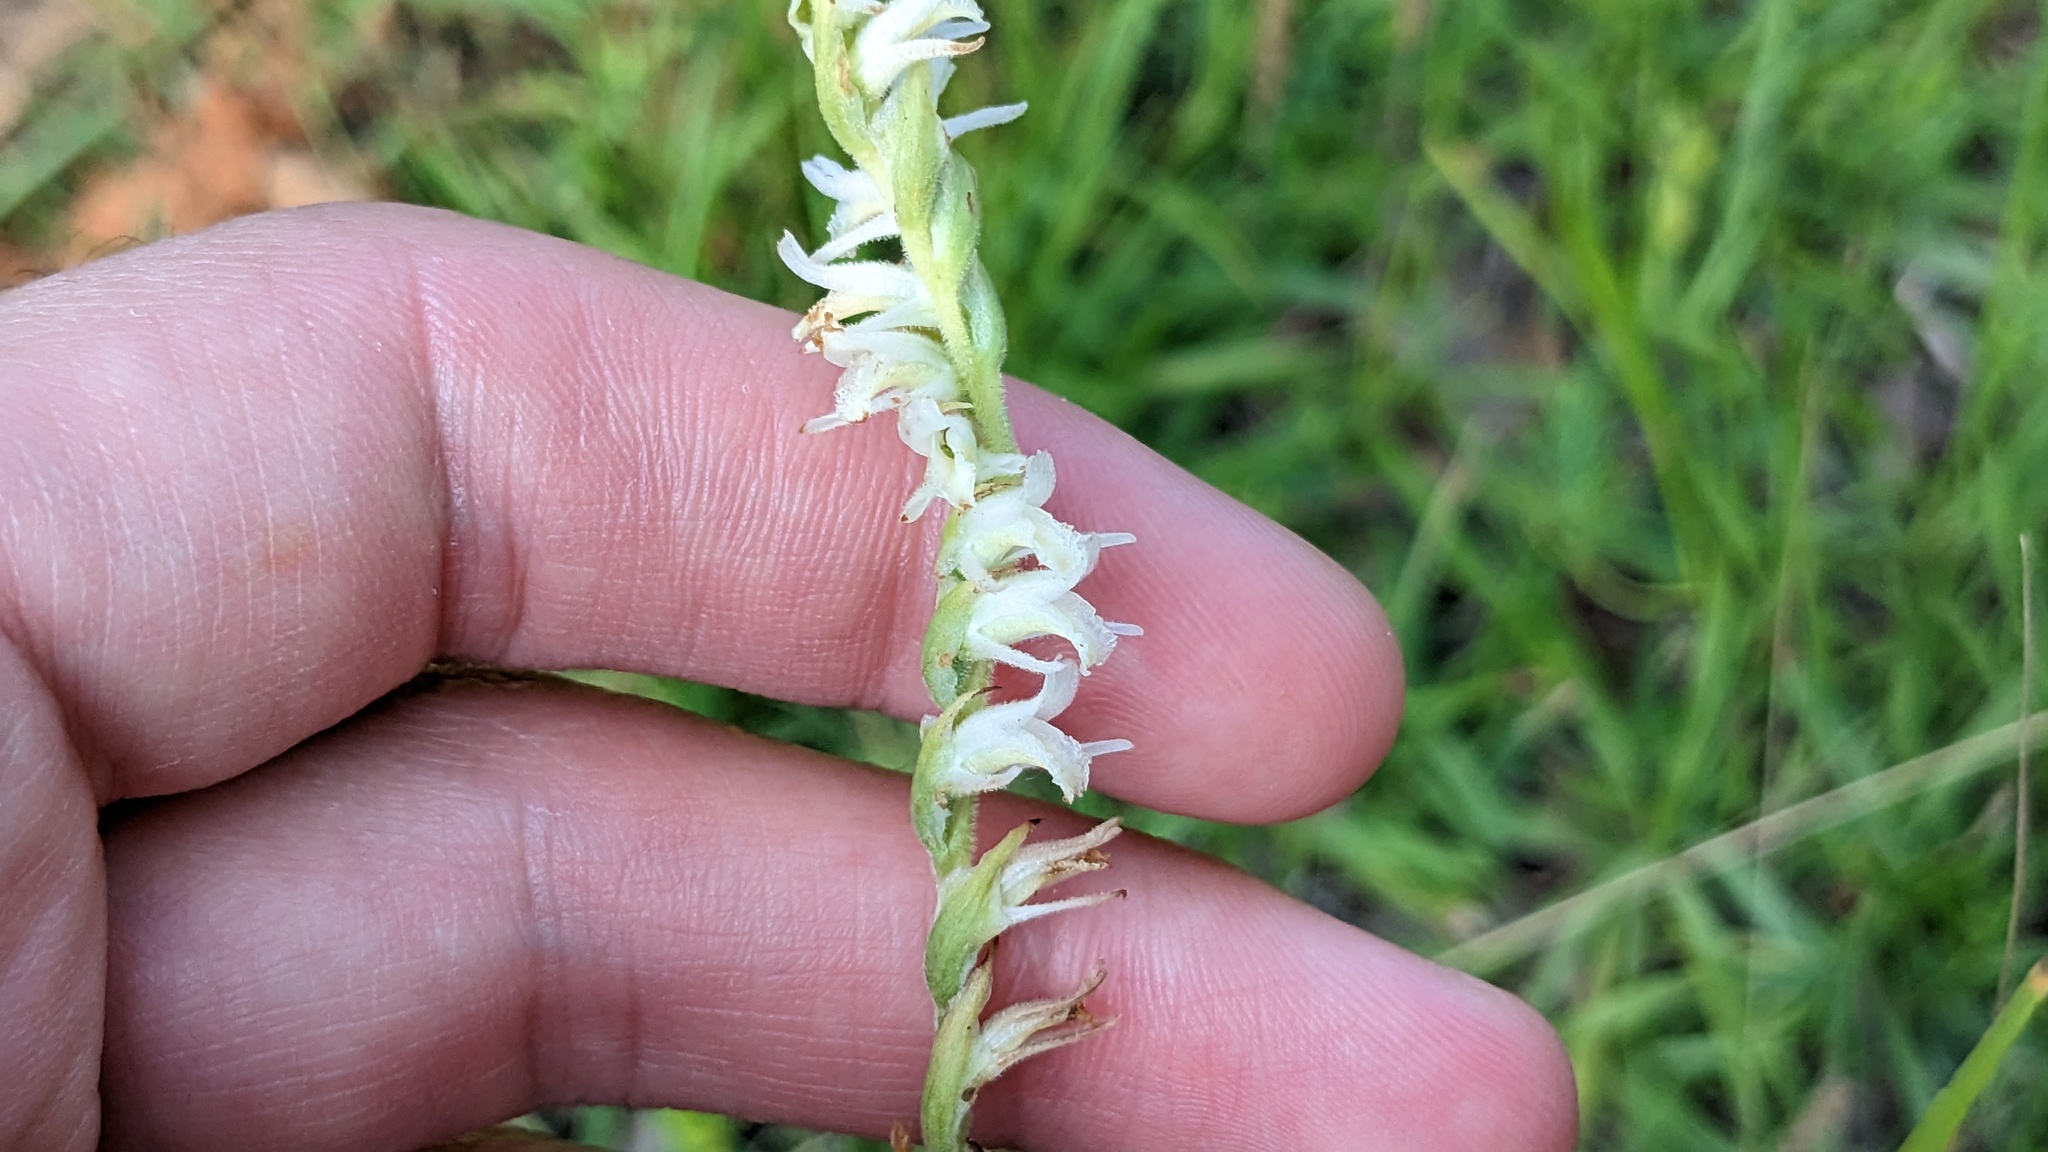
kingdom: Plantae
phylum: Tracheophyta
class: Liliopsida
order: Asparagales
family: Orchidaceae
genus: Spiranthes
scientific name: Spiranthes vernalis
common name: Spring ladies'-tresses
